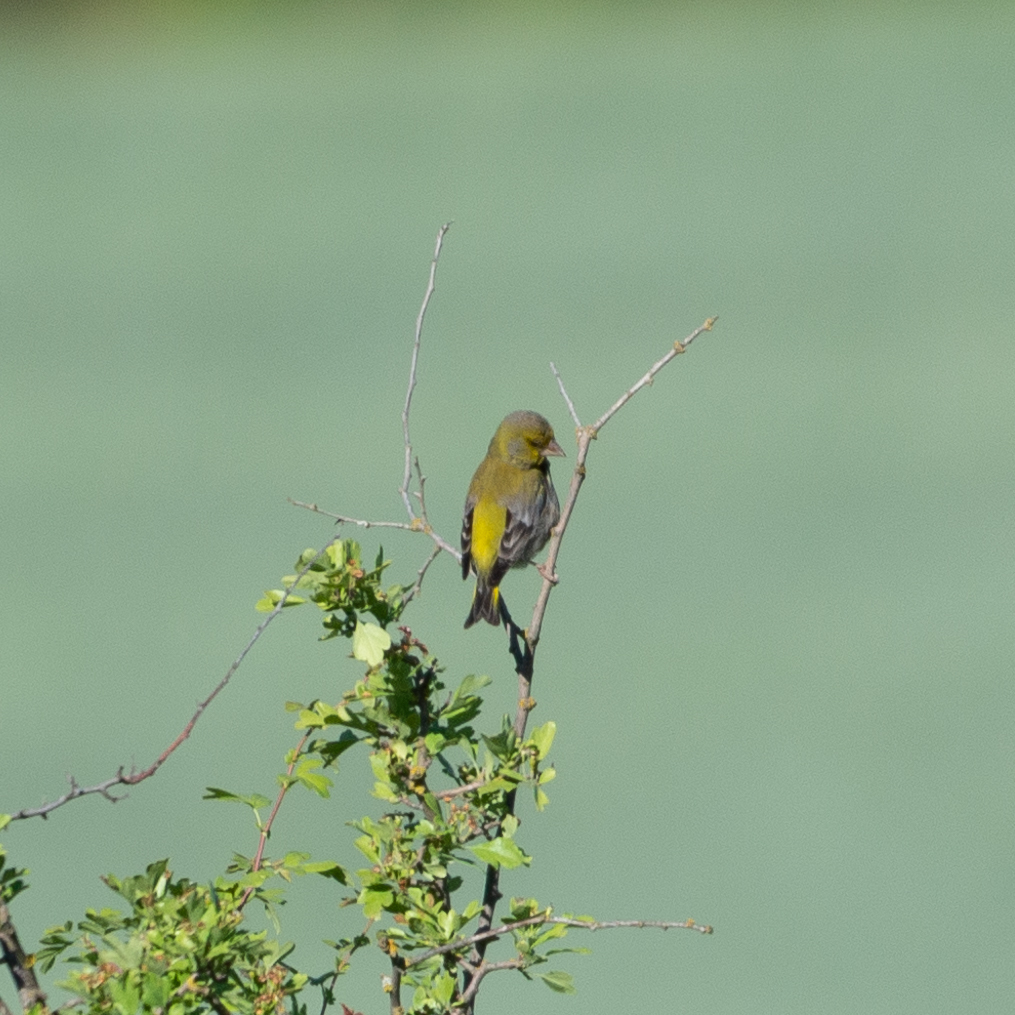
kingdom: Plantae
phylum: Tracheophyta
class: Liliopsida
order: Poales
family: Poaceae
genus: Chloris
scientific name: Chloris chloris
